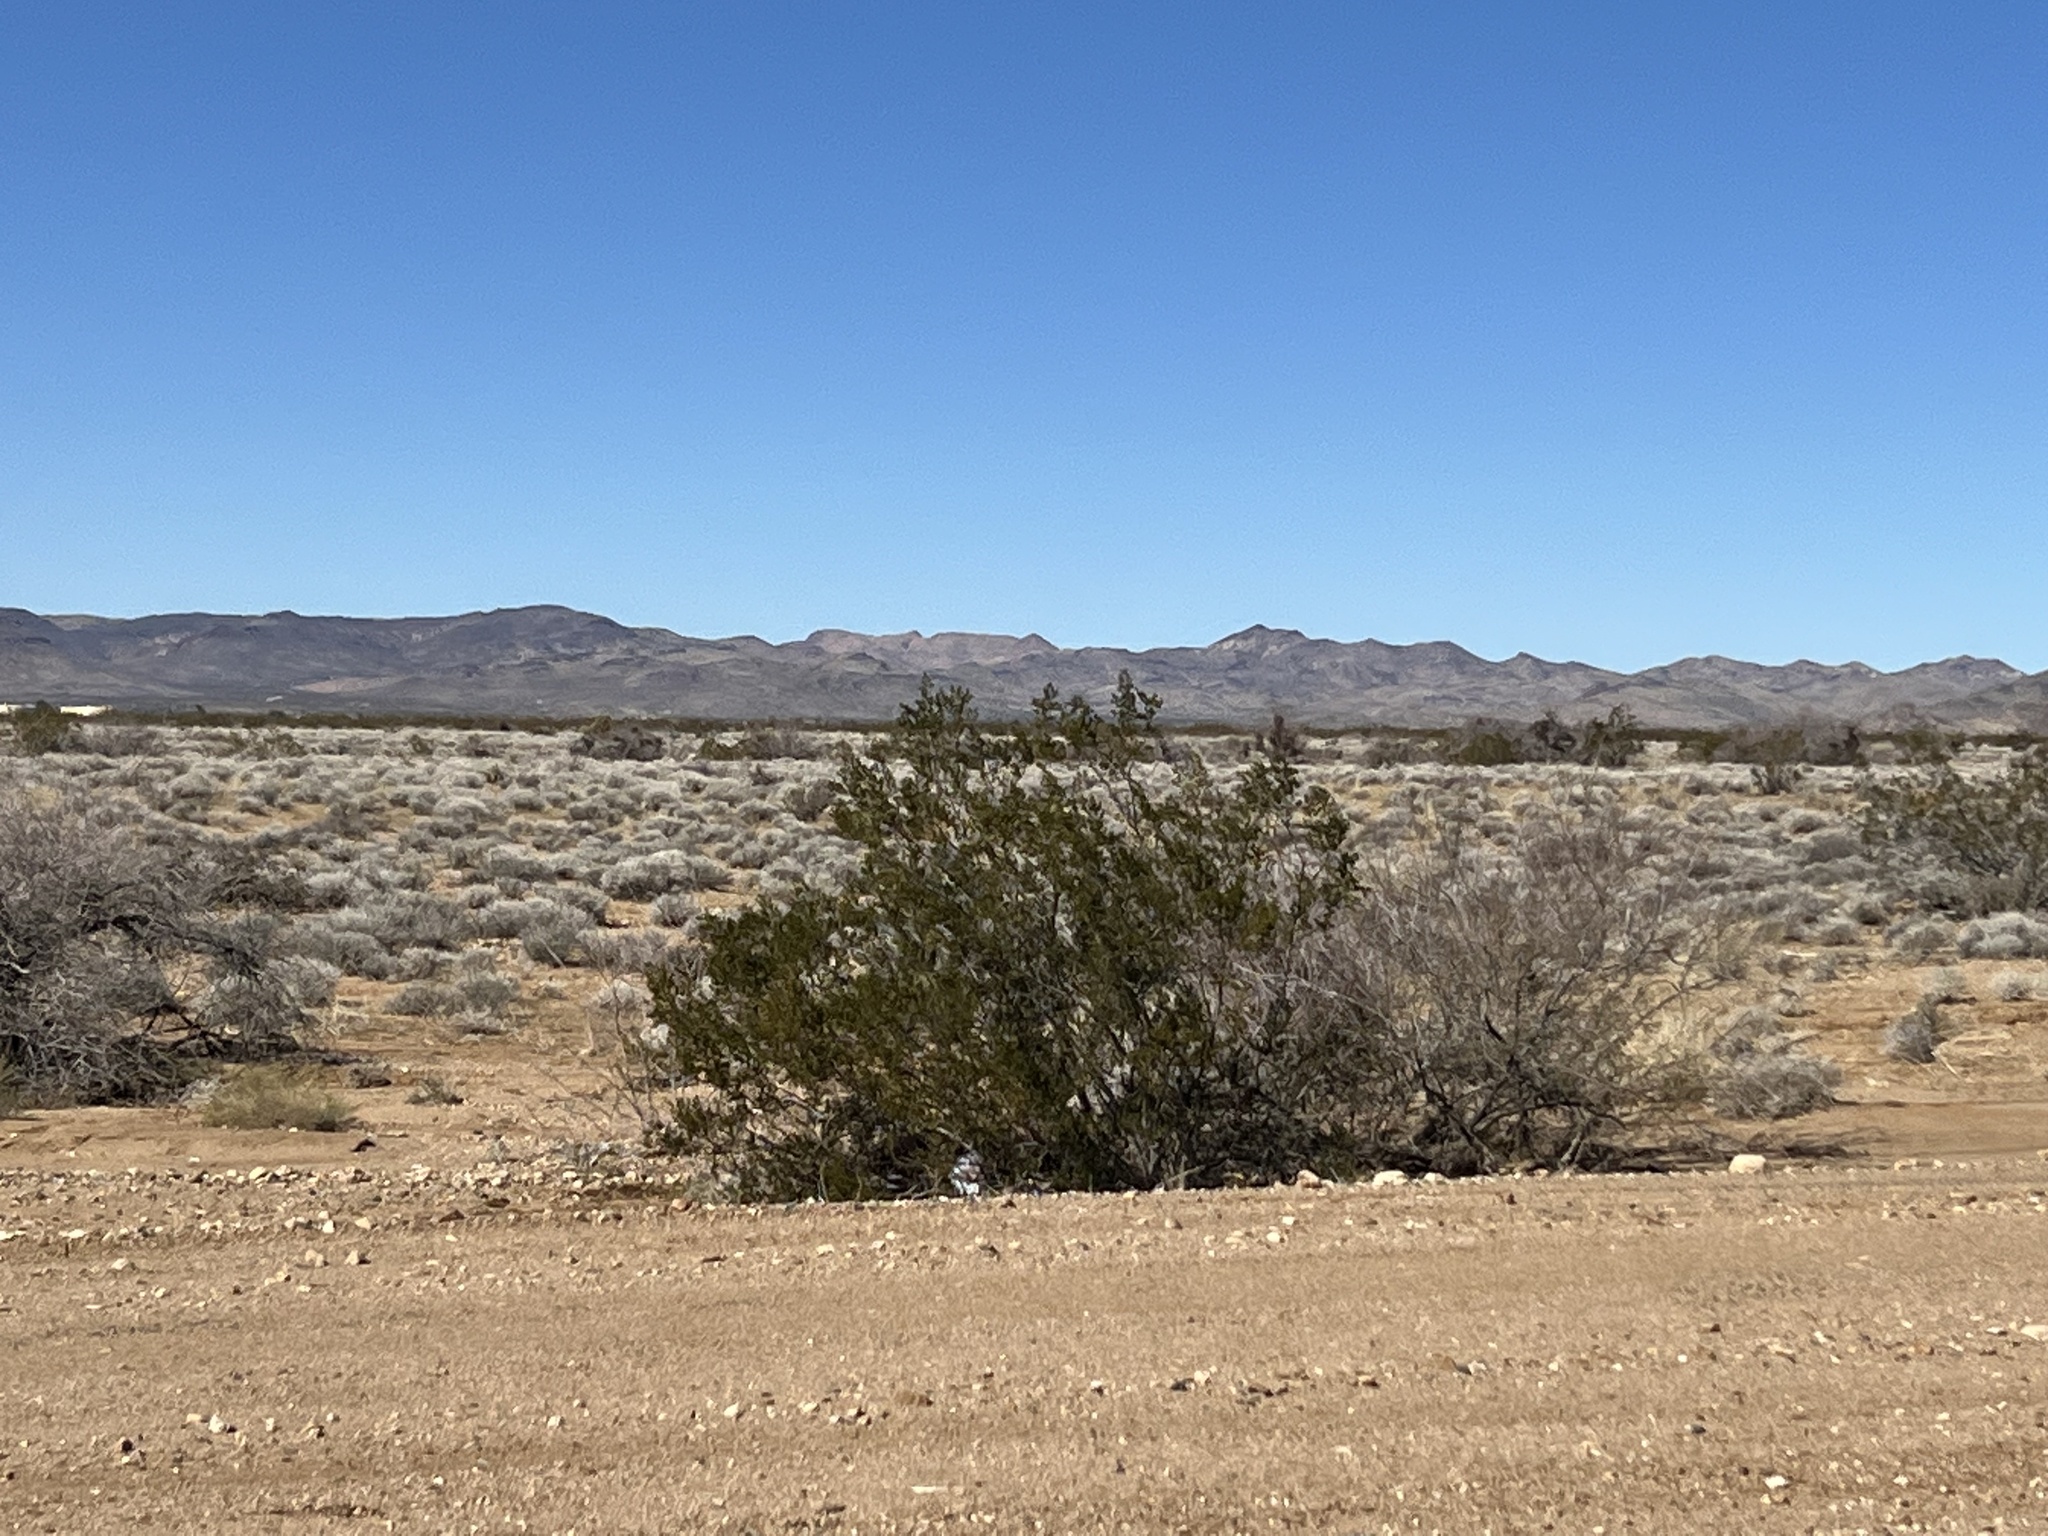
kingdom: Plantae
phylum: Tracheophyta
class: Magnoliopsida
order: Zygophyllales
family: Zygophyllaceae
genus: Larrea
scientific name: Larrea tridentata
